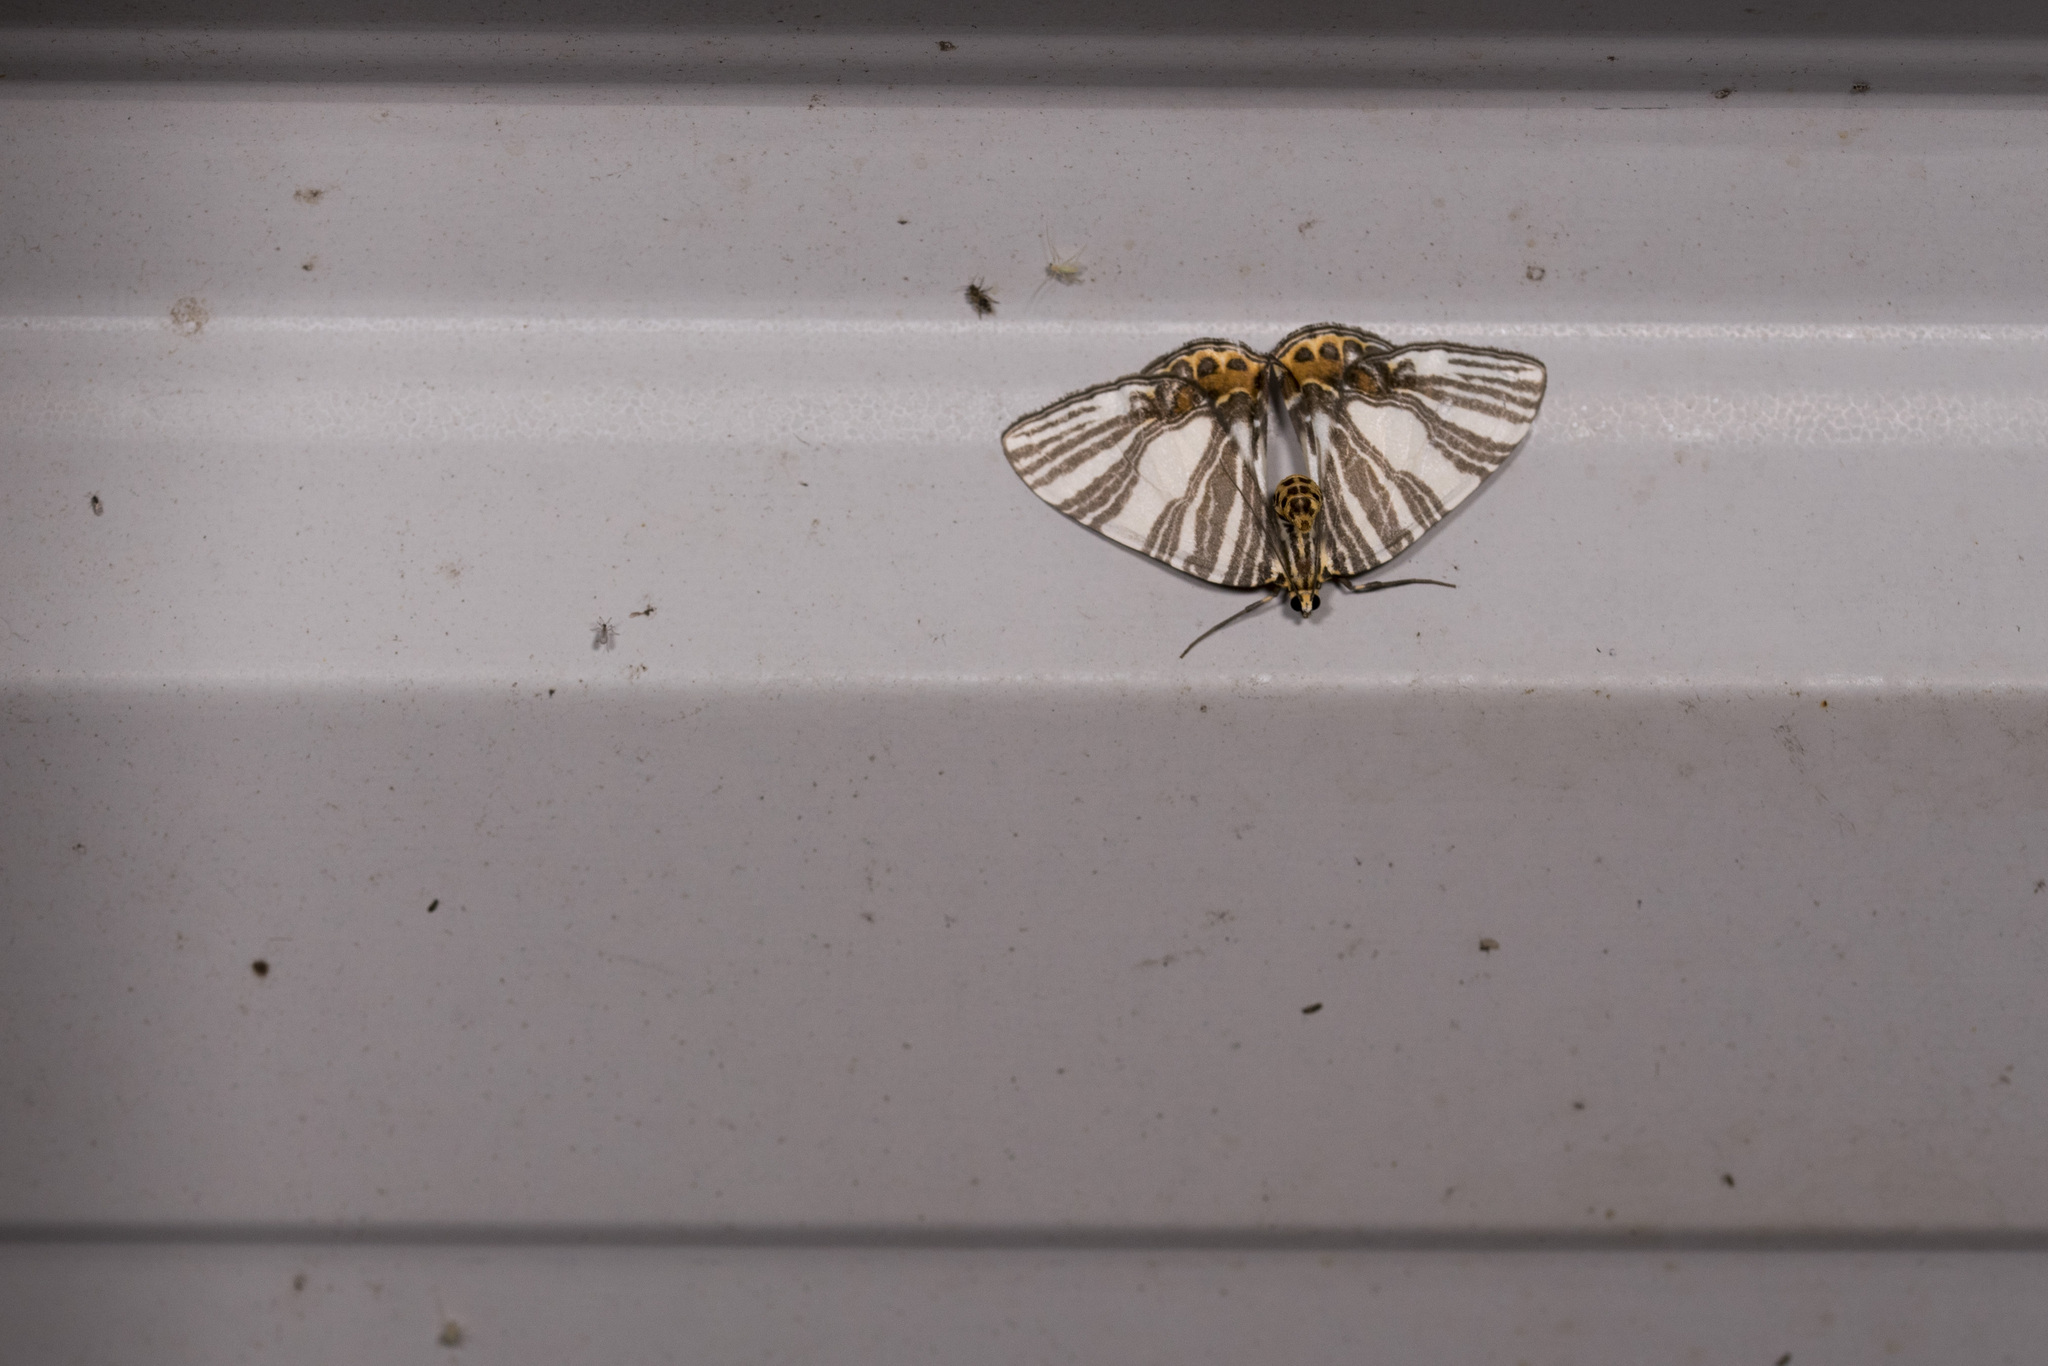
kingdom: Animalia
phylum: Arthropoda
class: Insecta
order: Lepidoptera
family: Geometridae
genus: Callygris
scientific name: Callygris compositata
